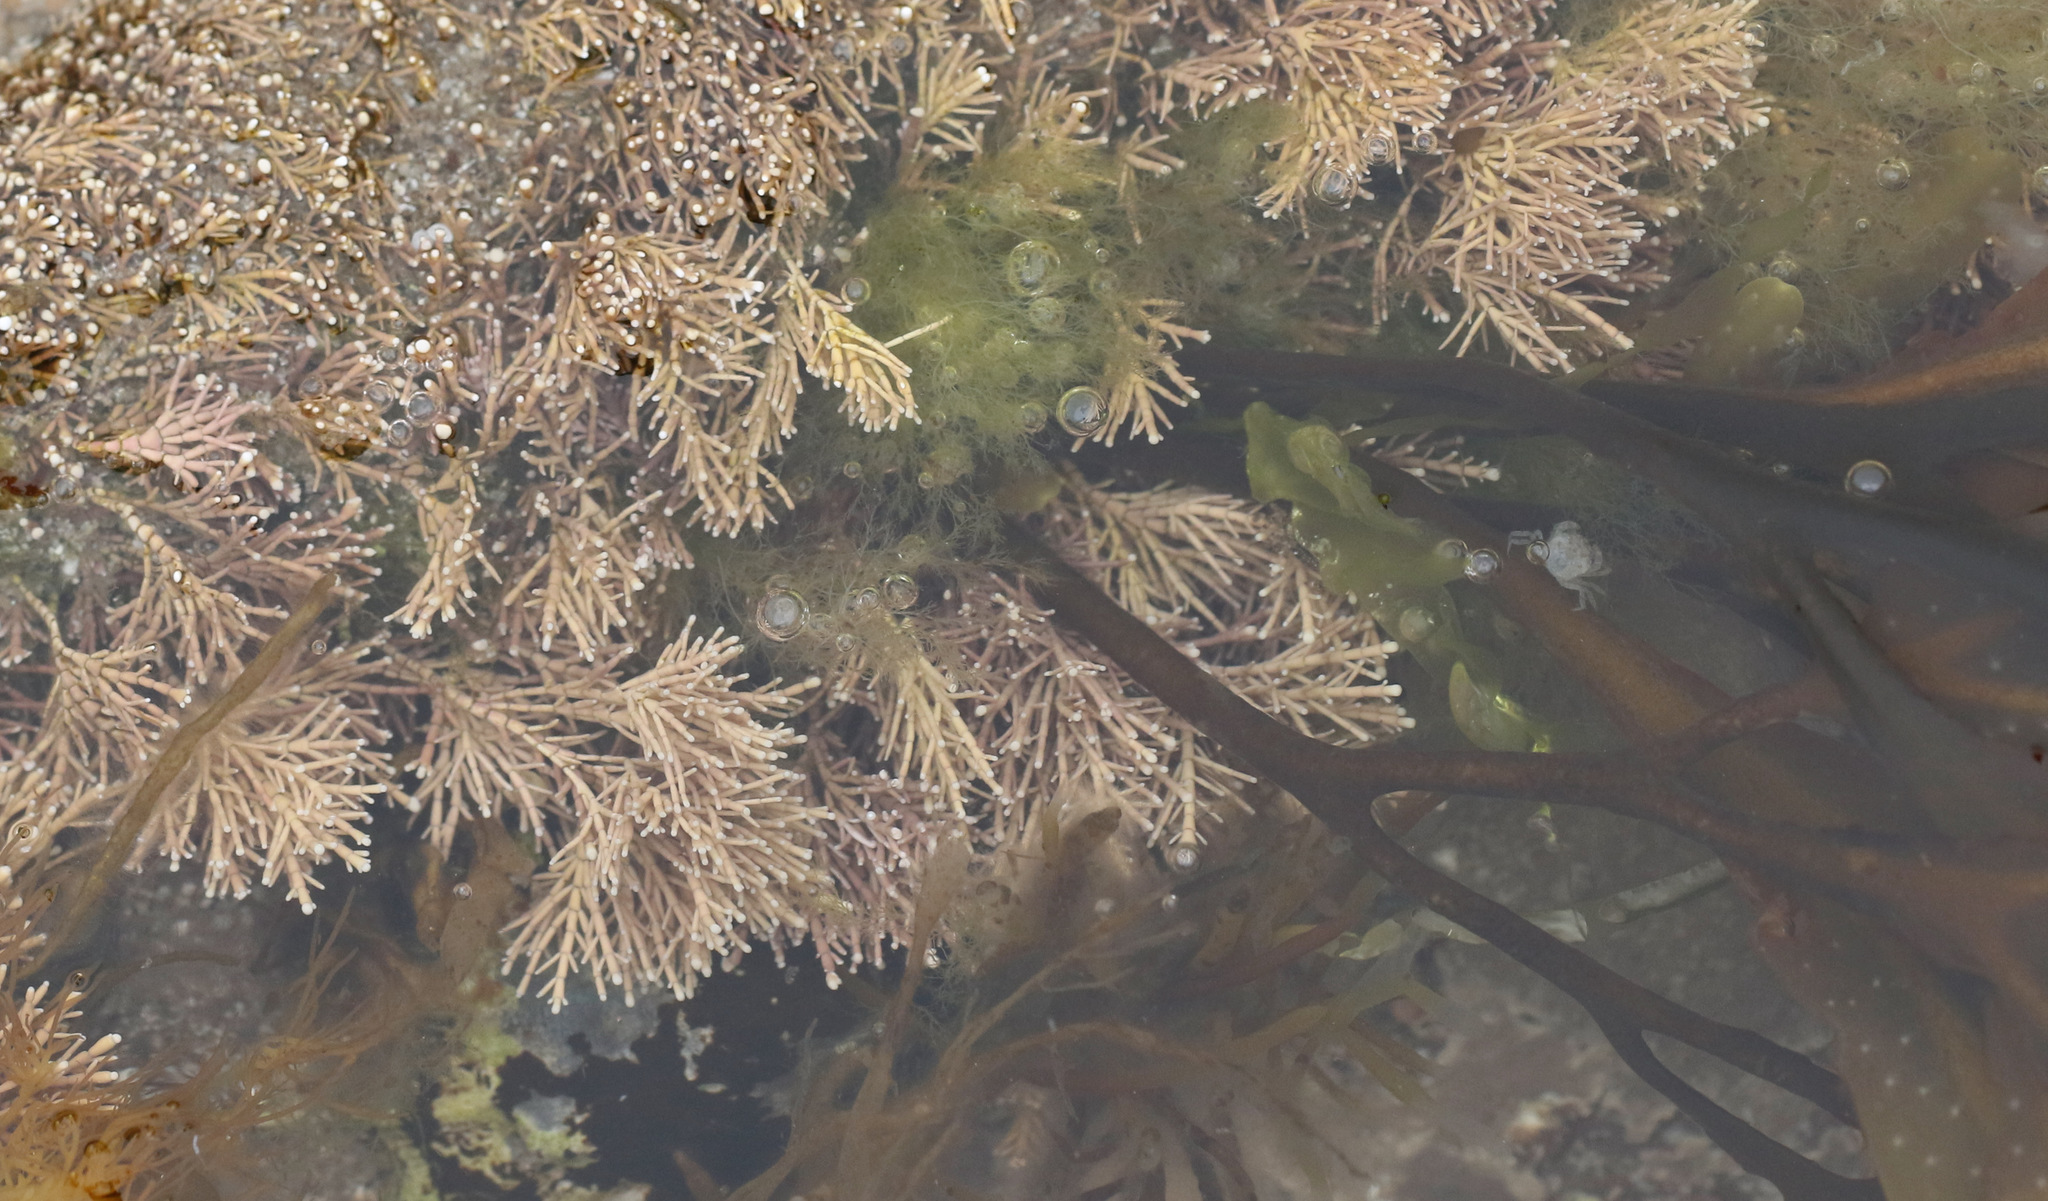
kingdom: Plantae
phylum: Rhodophyta
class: Florideophyceae
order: Corallinales
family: Corallinaceae
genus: Corallina
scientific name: Corallina officinalis
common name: Coral weed
